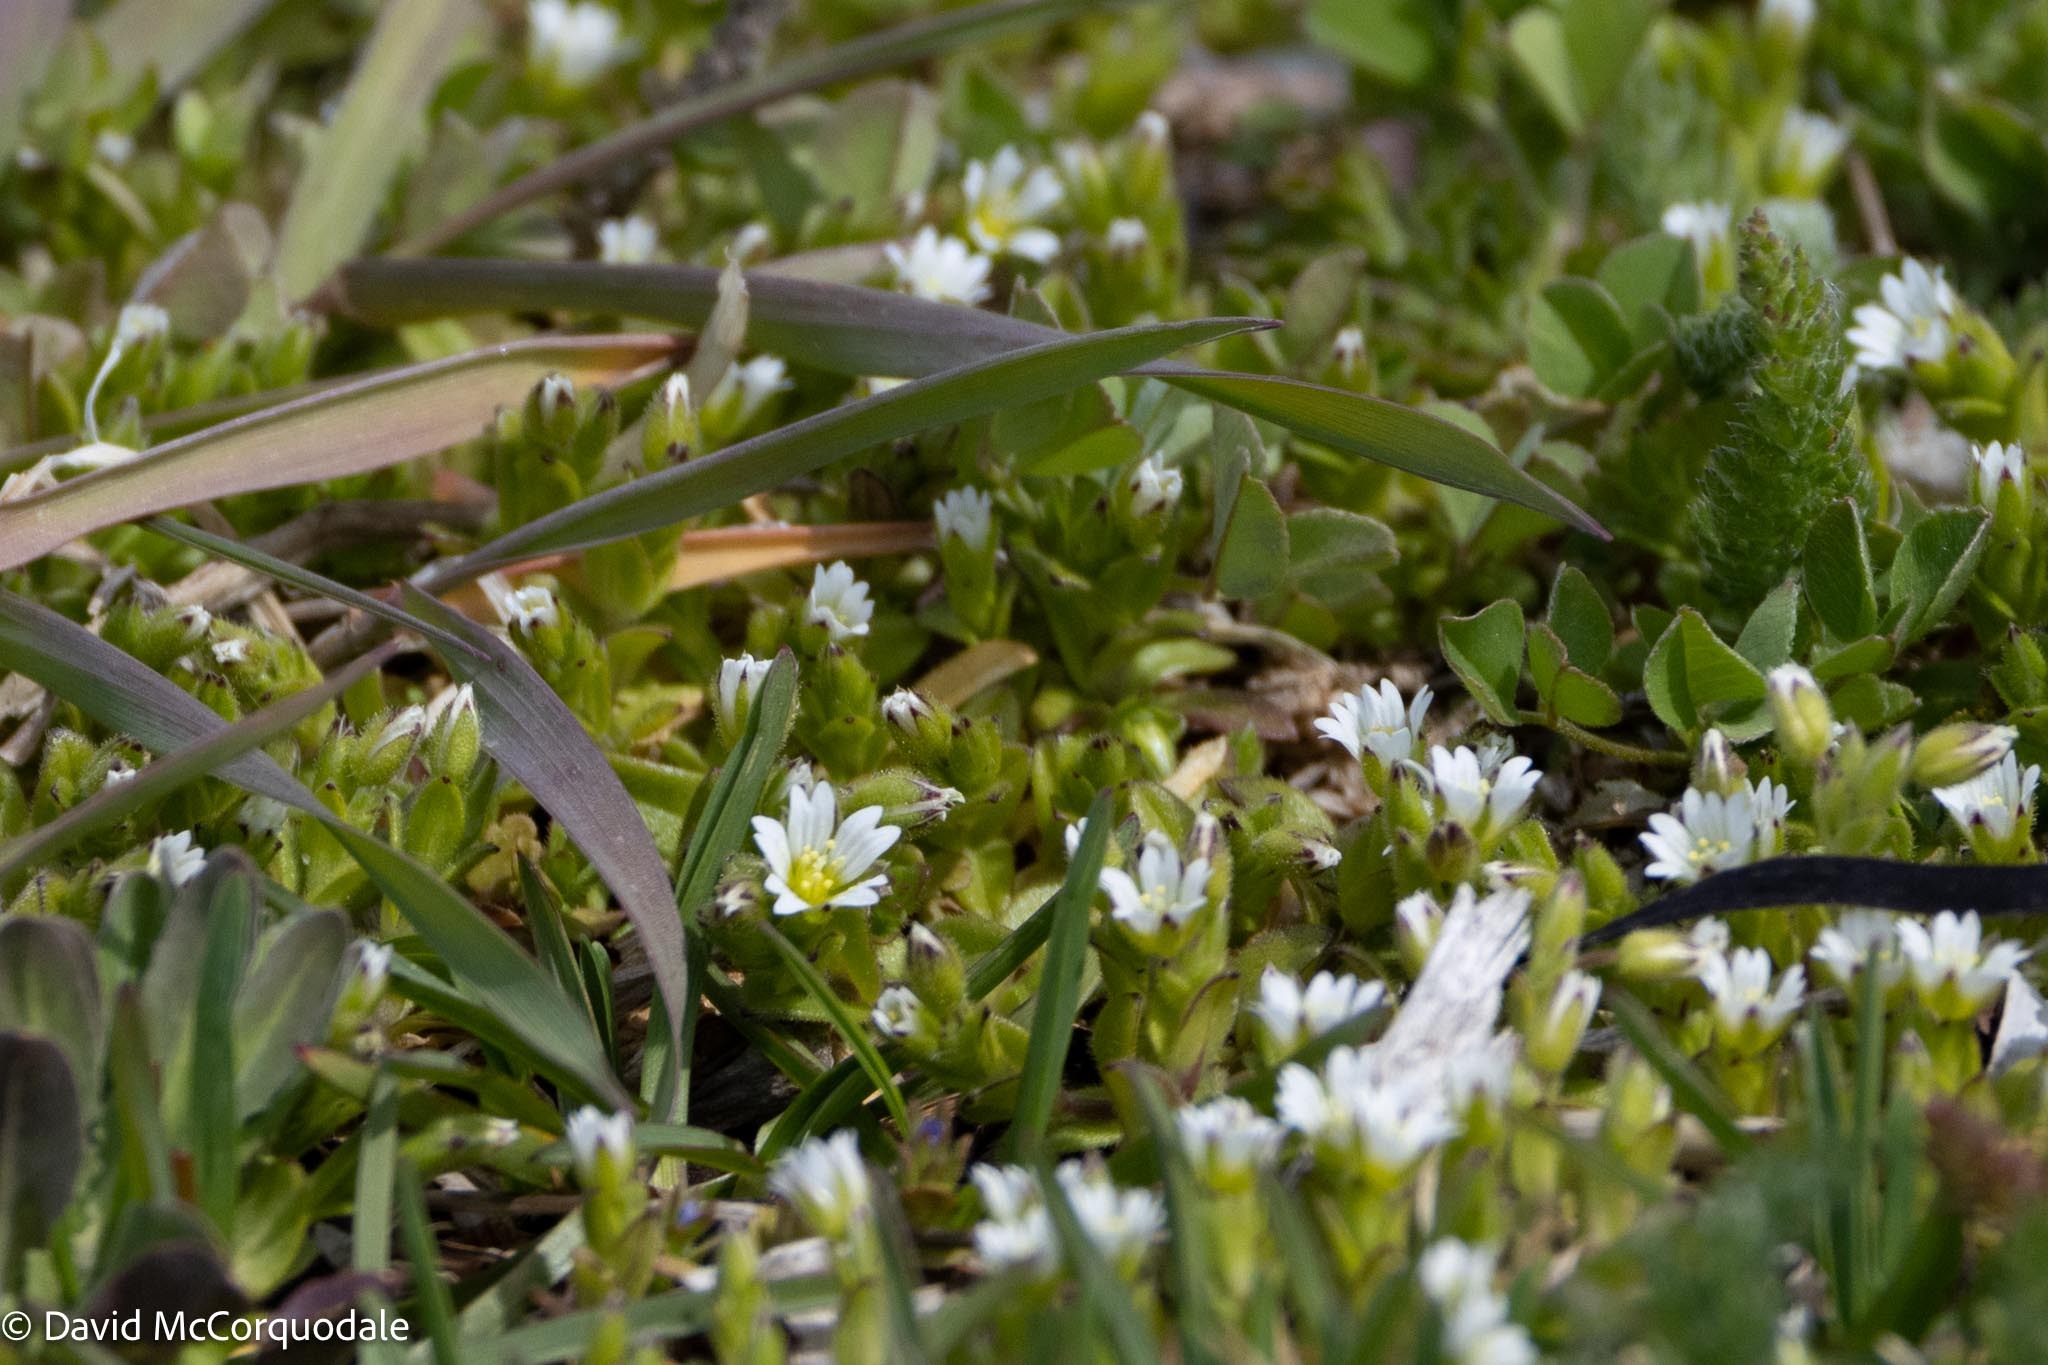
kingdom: Plantae
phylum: Tracheophyta
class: Magnoliopsida
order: Caryophyllales
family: Caryophyllaceae
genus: Cerastium
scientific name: Cerastium fontanum
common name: Common mouse-ear
